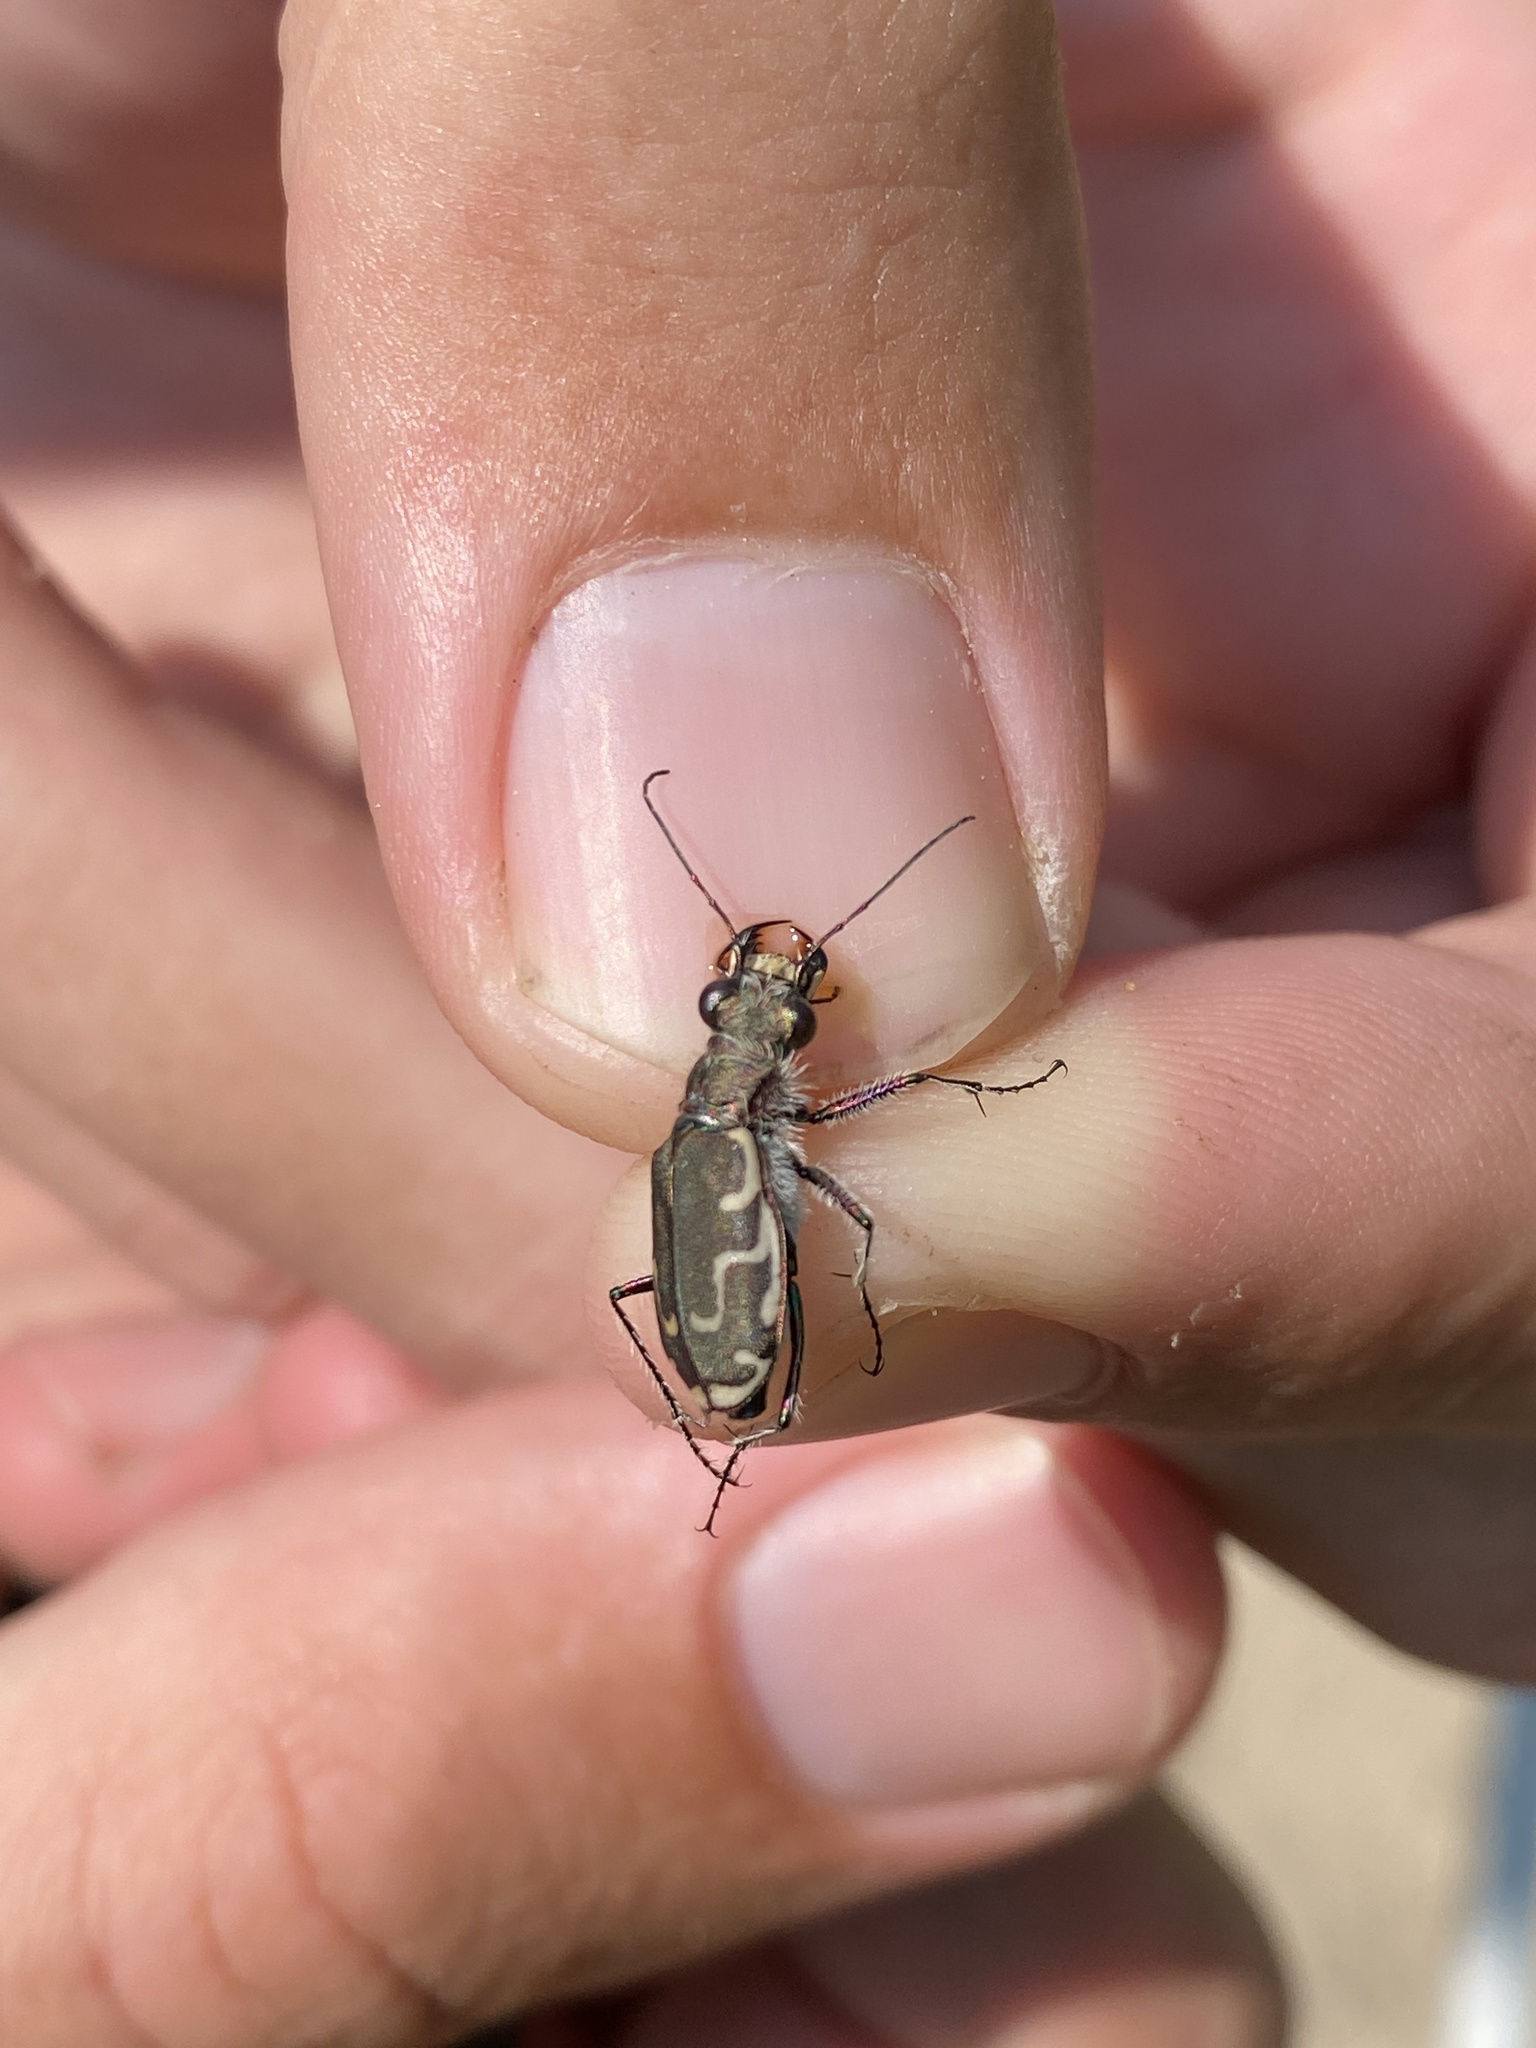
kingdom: Animalia
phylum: Arthropoda
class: Insecta
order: Coleoptera
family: Carabidae
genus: Cicindela
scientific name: Cicindela repanda
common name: Bronzed tiger beetle
